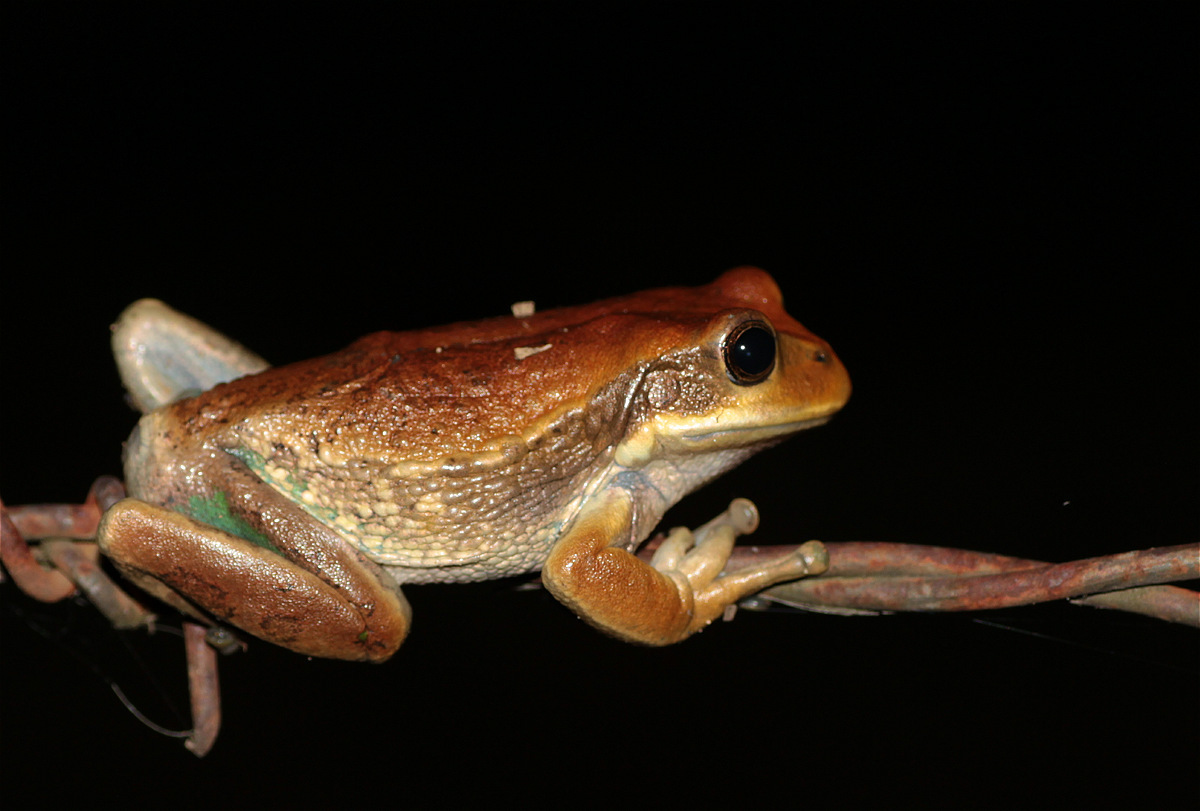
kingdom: Animalia
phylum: Chordata
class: Amphibia
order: Anura
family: Hemiphractidae
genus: Gastrotheca
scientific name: Gastrotheca cuencana
